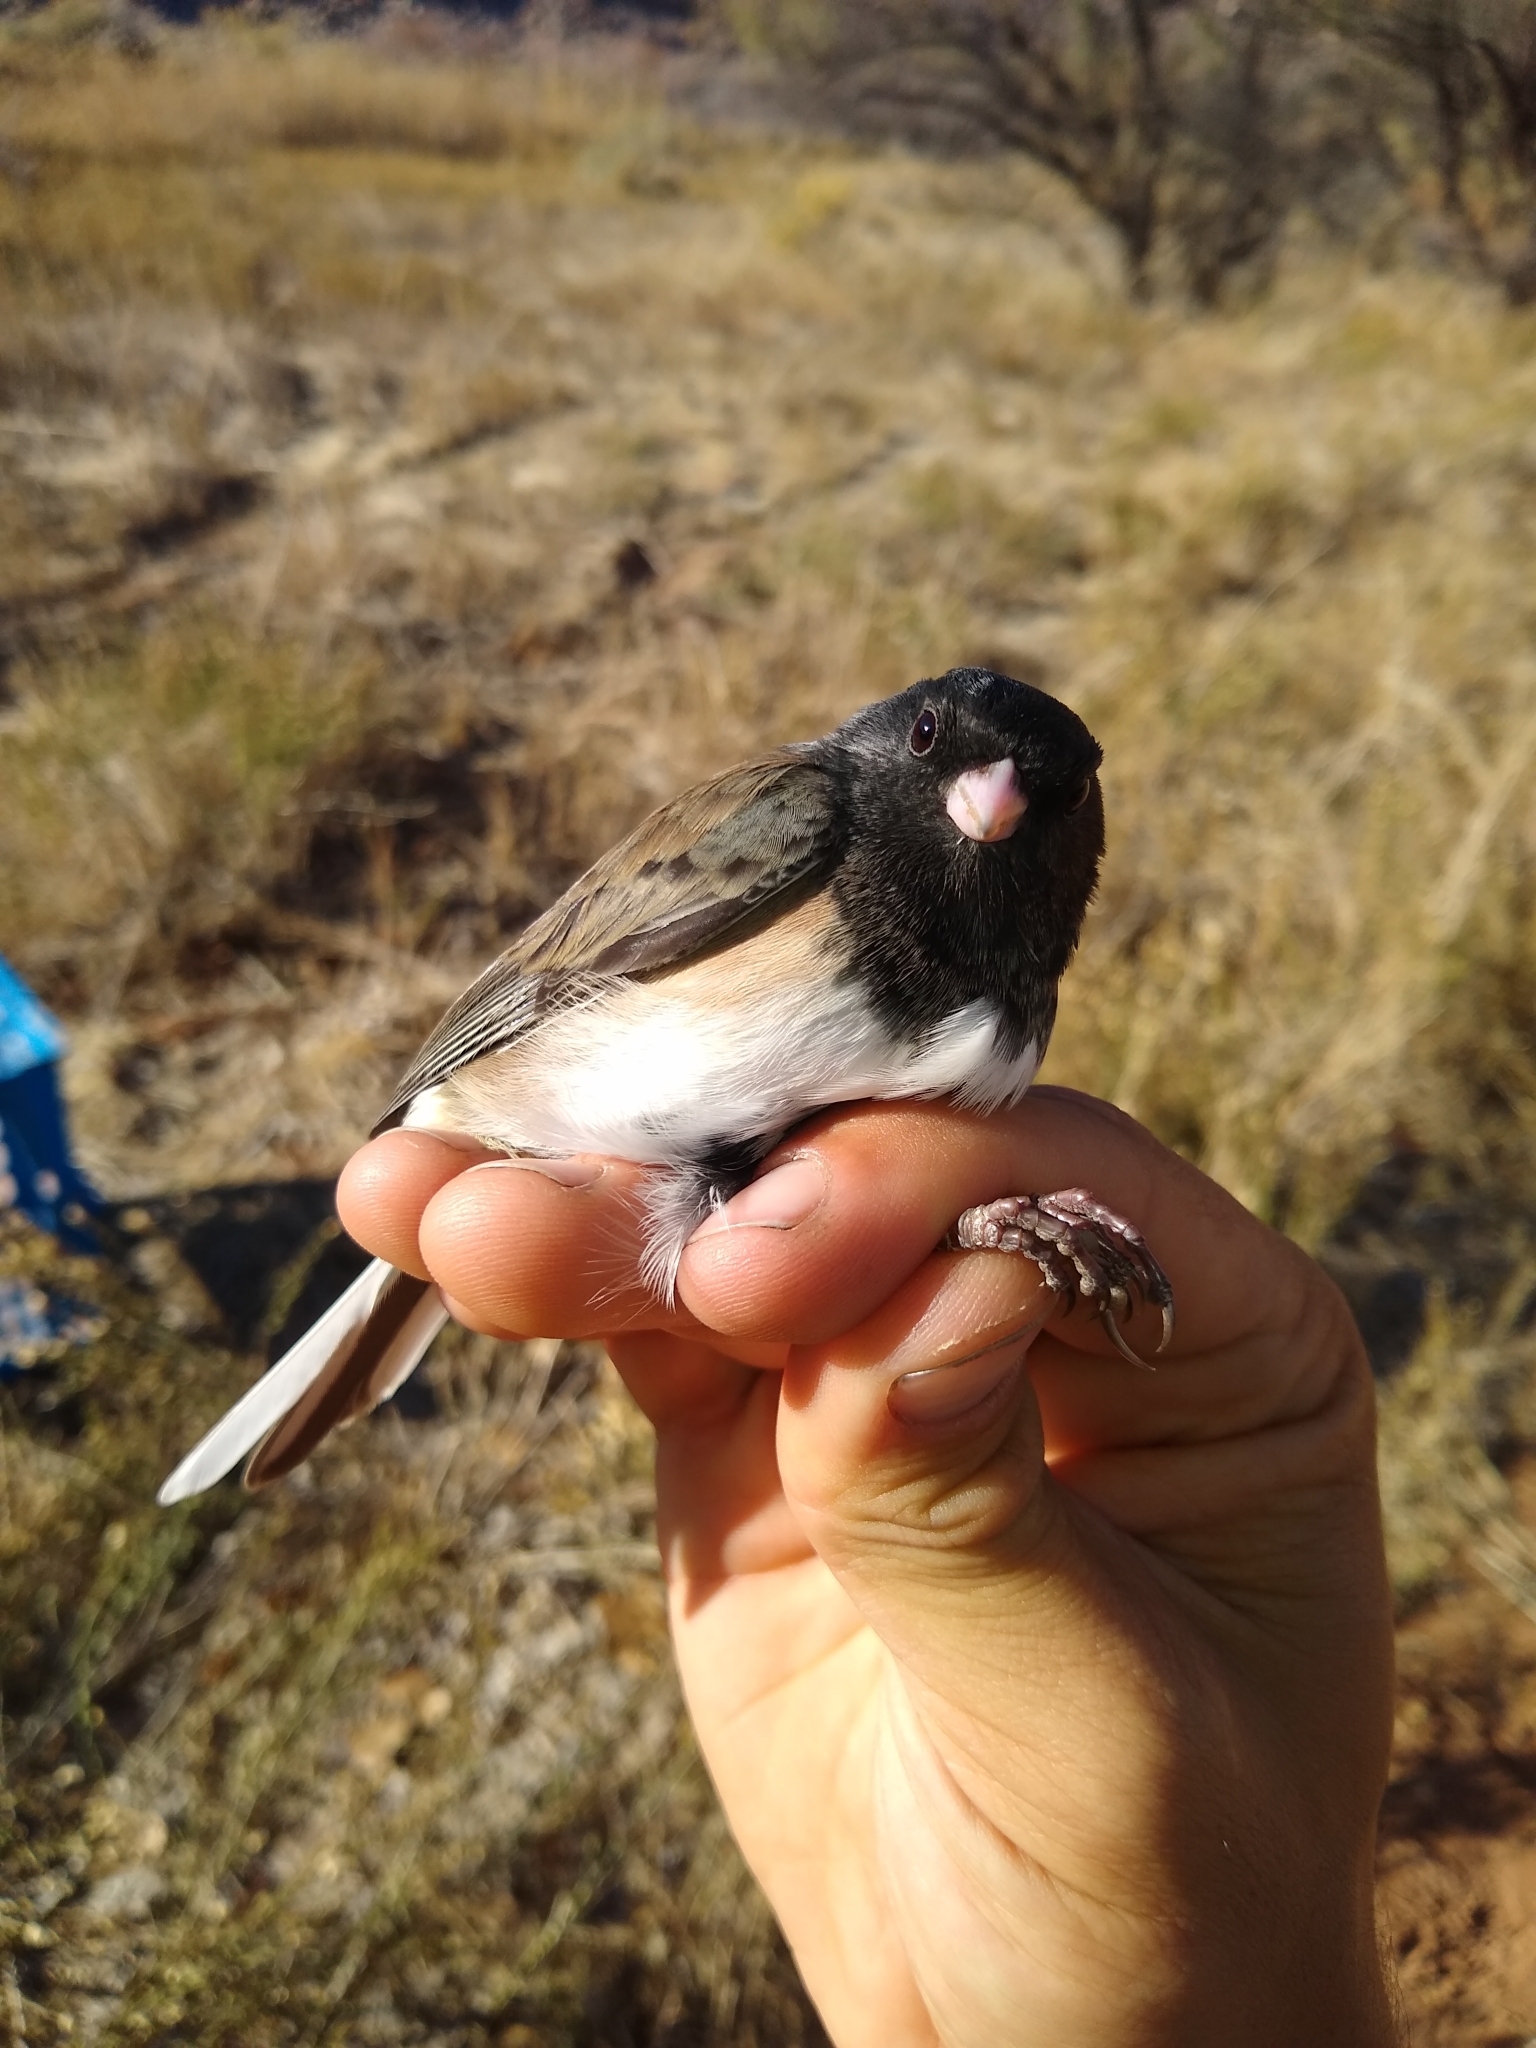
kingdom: Animalia
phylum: Chordata
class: Aves
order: Passeriformes
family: Passerellidae
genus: Junco
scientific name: Junco hyemalis
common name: Dark-eyed junco
